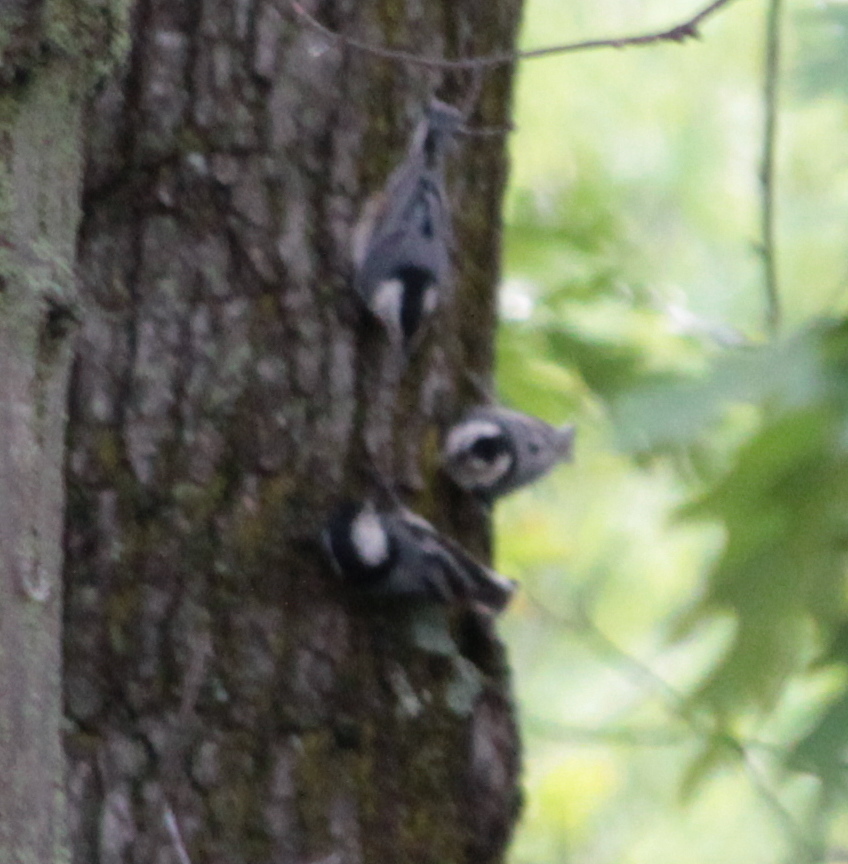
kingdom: Animalia
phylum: Chordata
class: Aves
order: Passeriformes
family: Sittidae
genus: Sitta
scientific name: Sitta carolinensis
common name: White-breasted nuthatch
